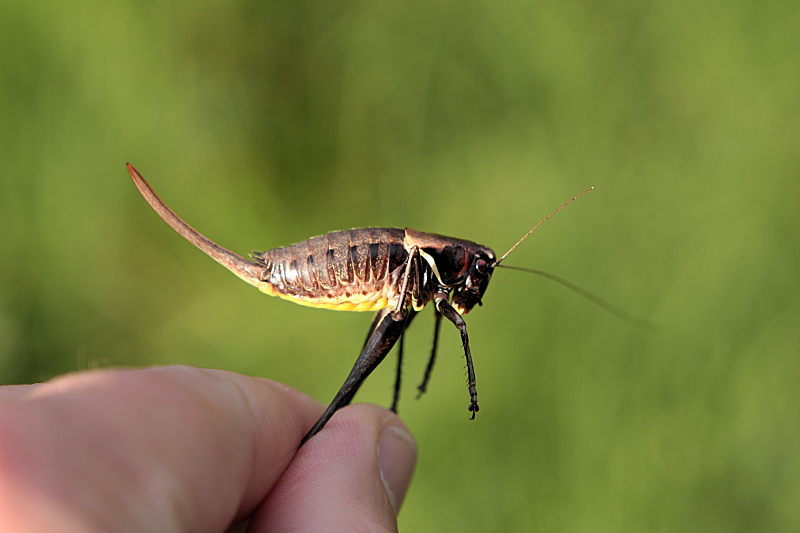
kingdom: Animalia
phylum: Arthropoda
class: Insecta
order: Orthoptera
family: Tettigoniidae
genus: Pholidoptera
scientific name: Pholidoptera aptera
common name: Alpine dark bush-cricket
